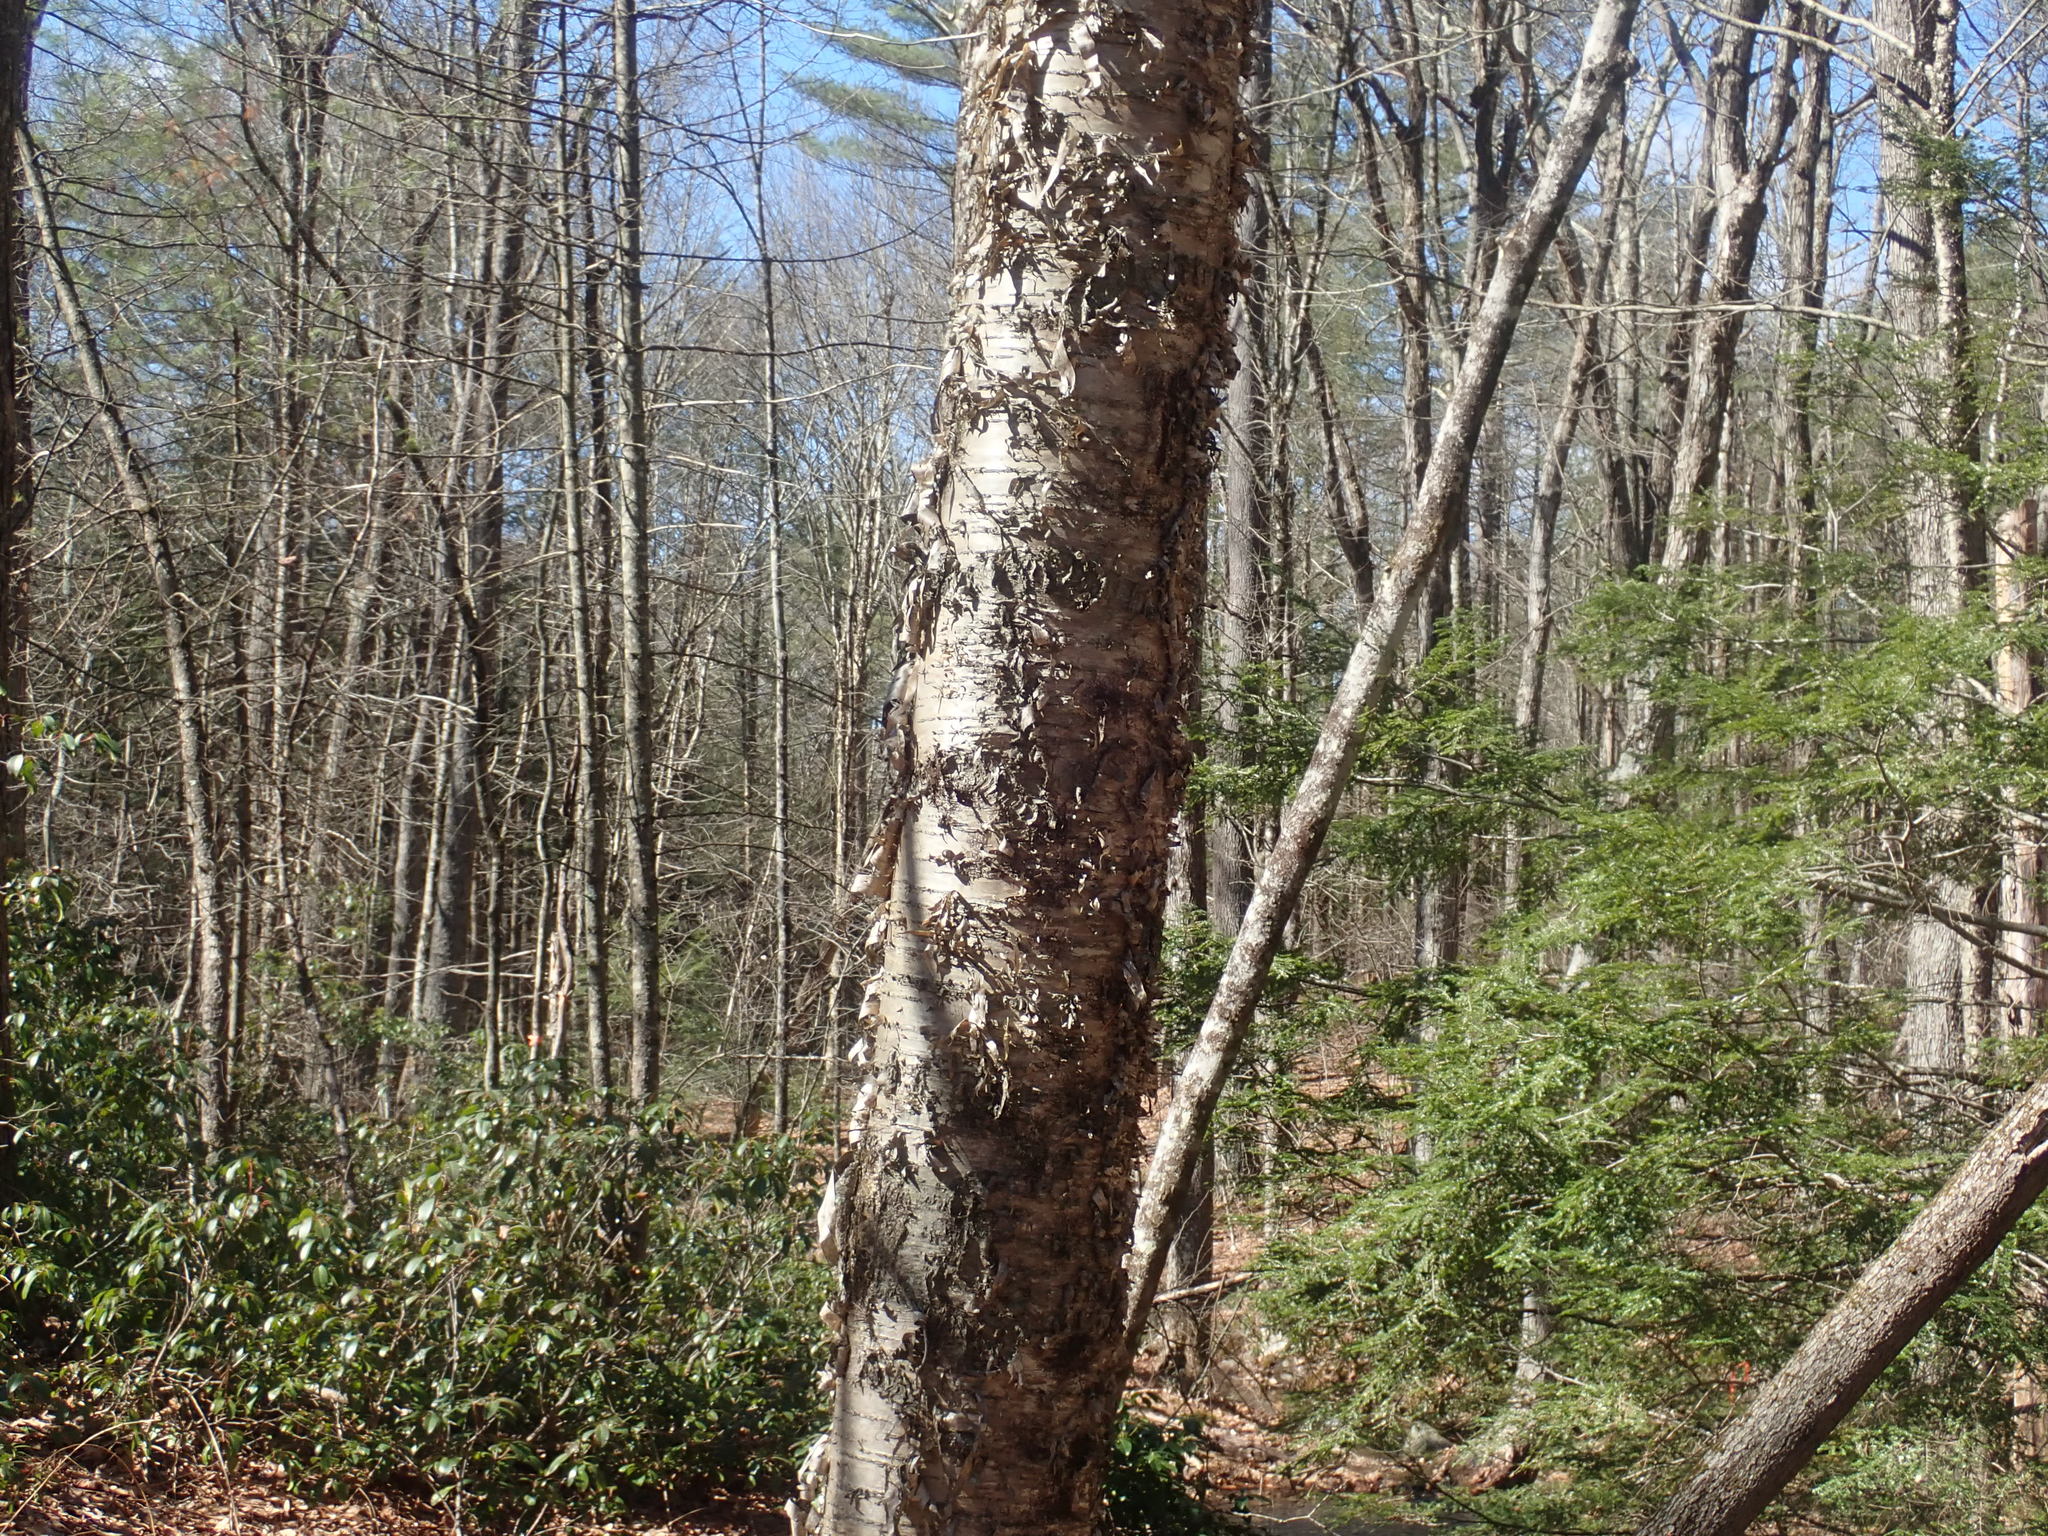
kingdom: Plantae
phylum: Tracheophyta
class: Magnoliopsida
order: Fagales
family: Betulaceae
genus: Betula
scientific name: Betula alleghaniensis
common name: Yellow birch
